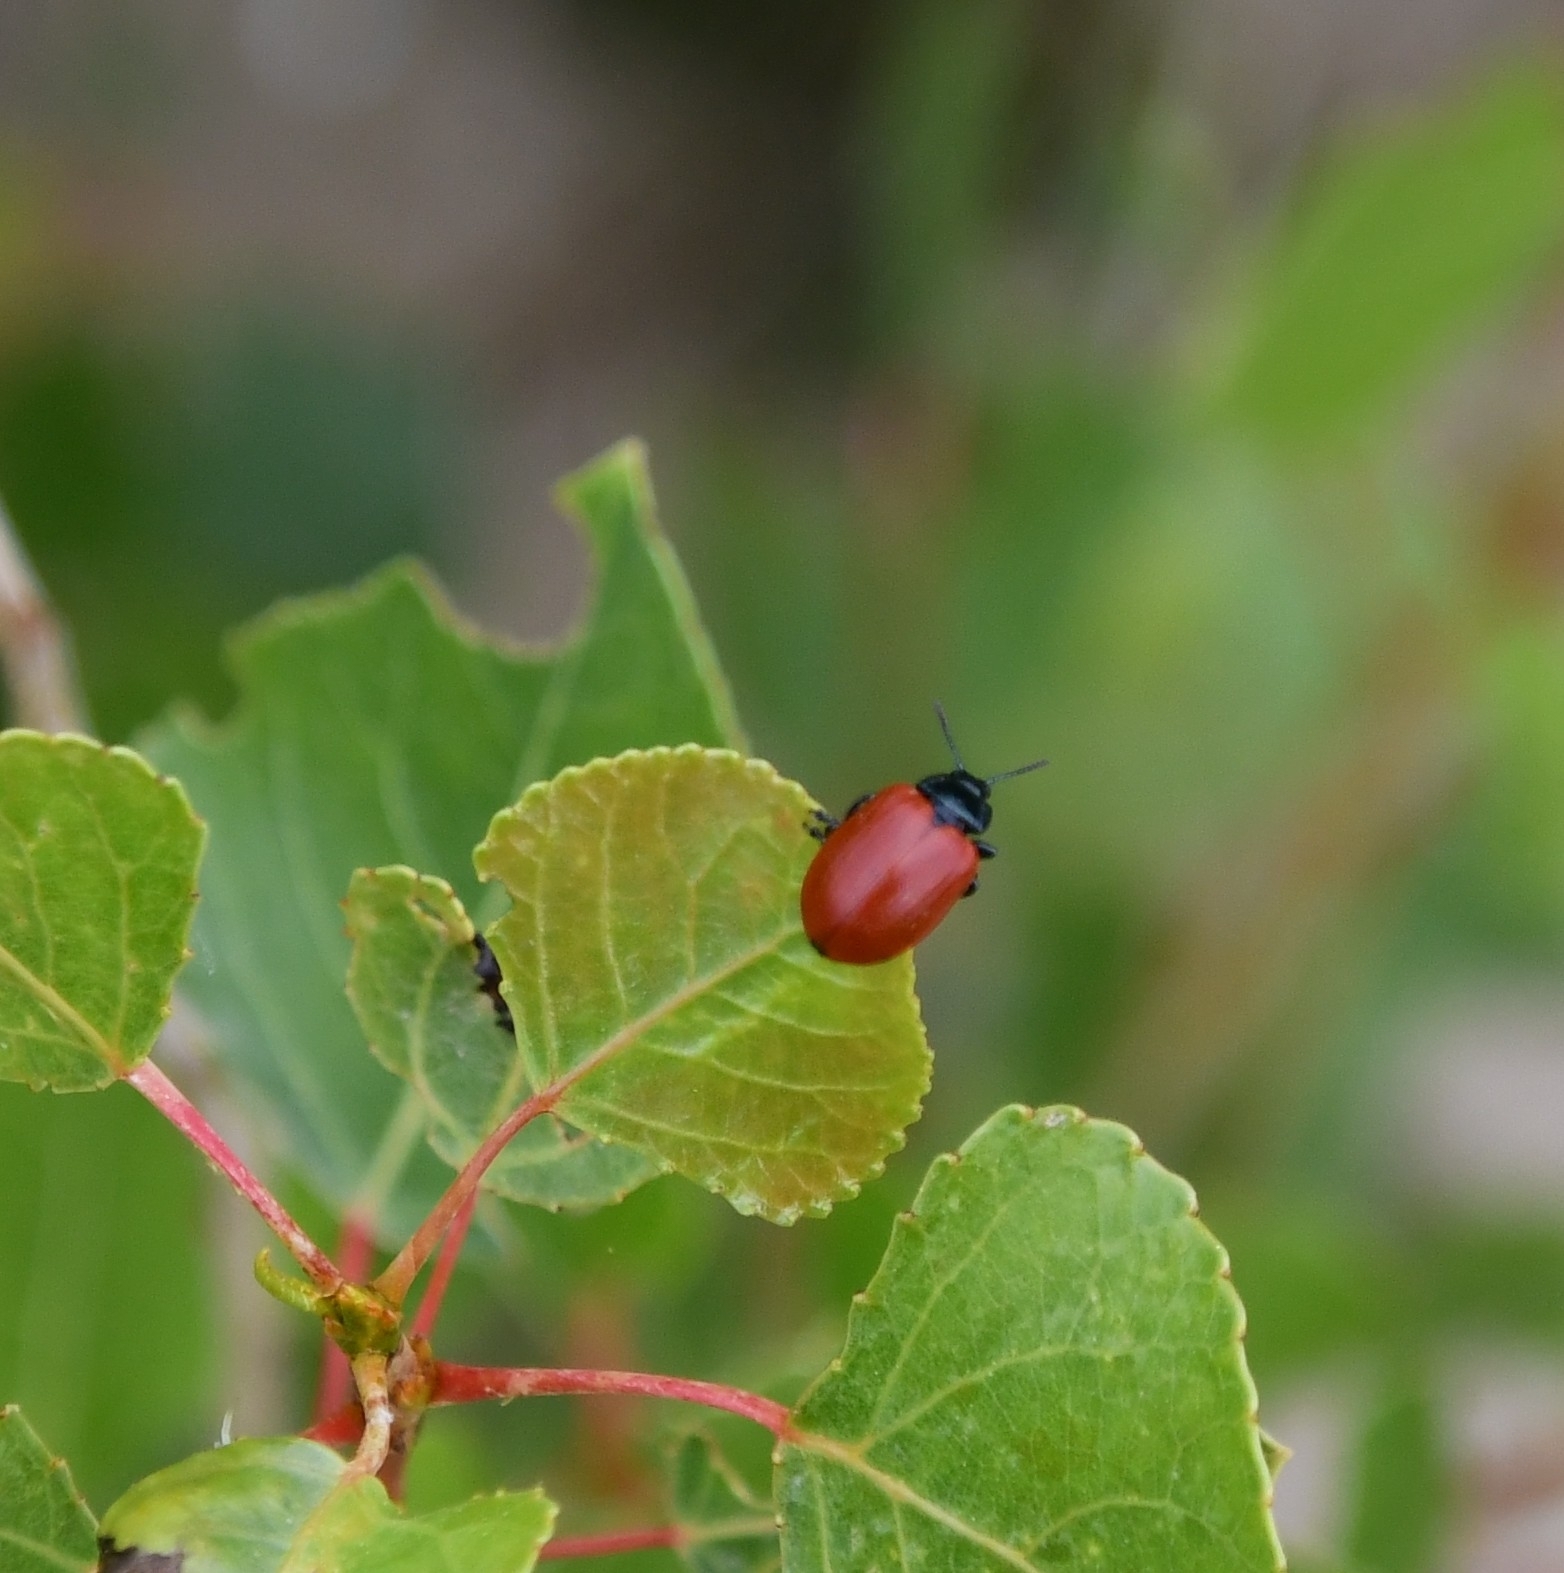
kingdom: Animalia
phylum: Arthropoda
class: Insecta
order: Coleoptera
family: Chrysomelidae
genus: Chrysomela
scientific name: Chrysomela populi
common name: Red poplar leaf beetle
